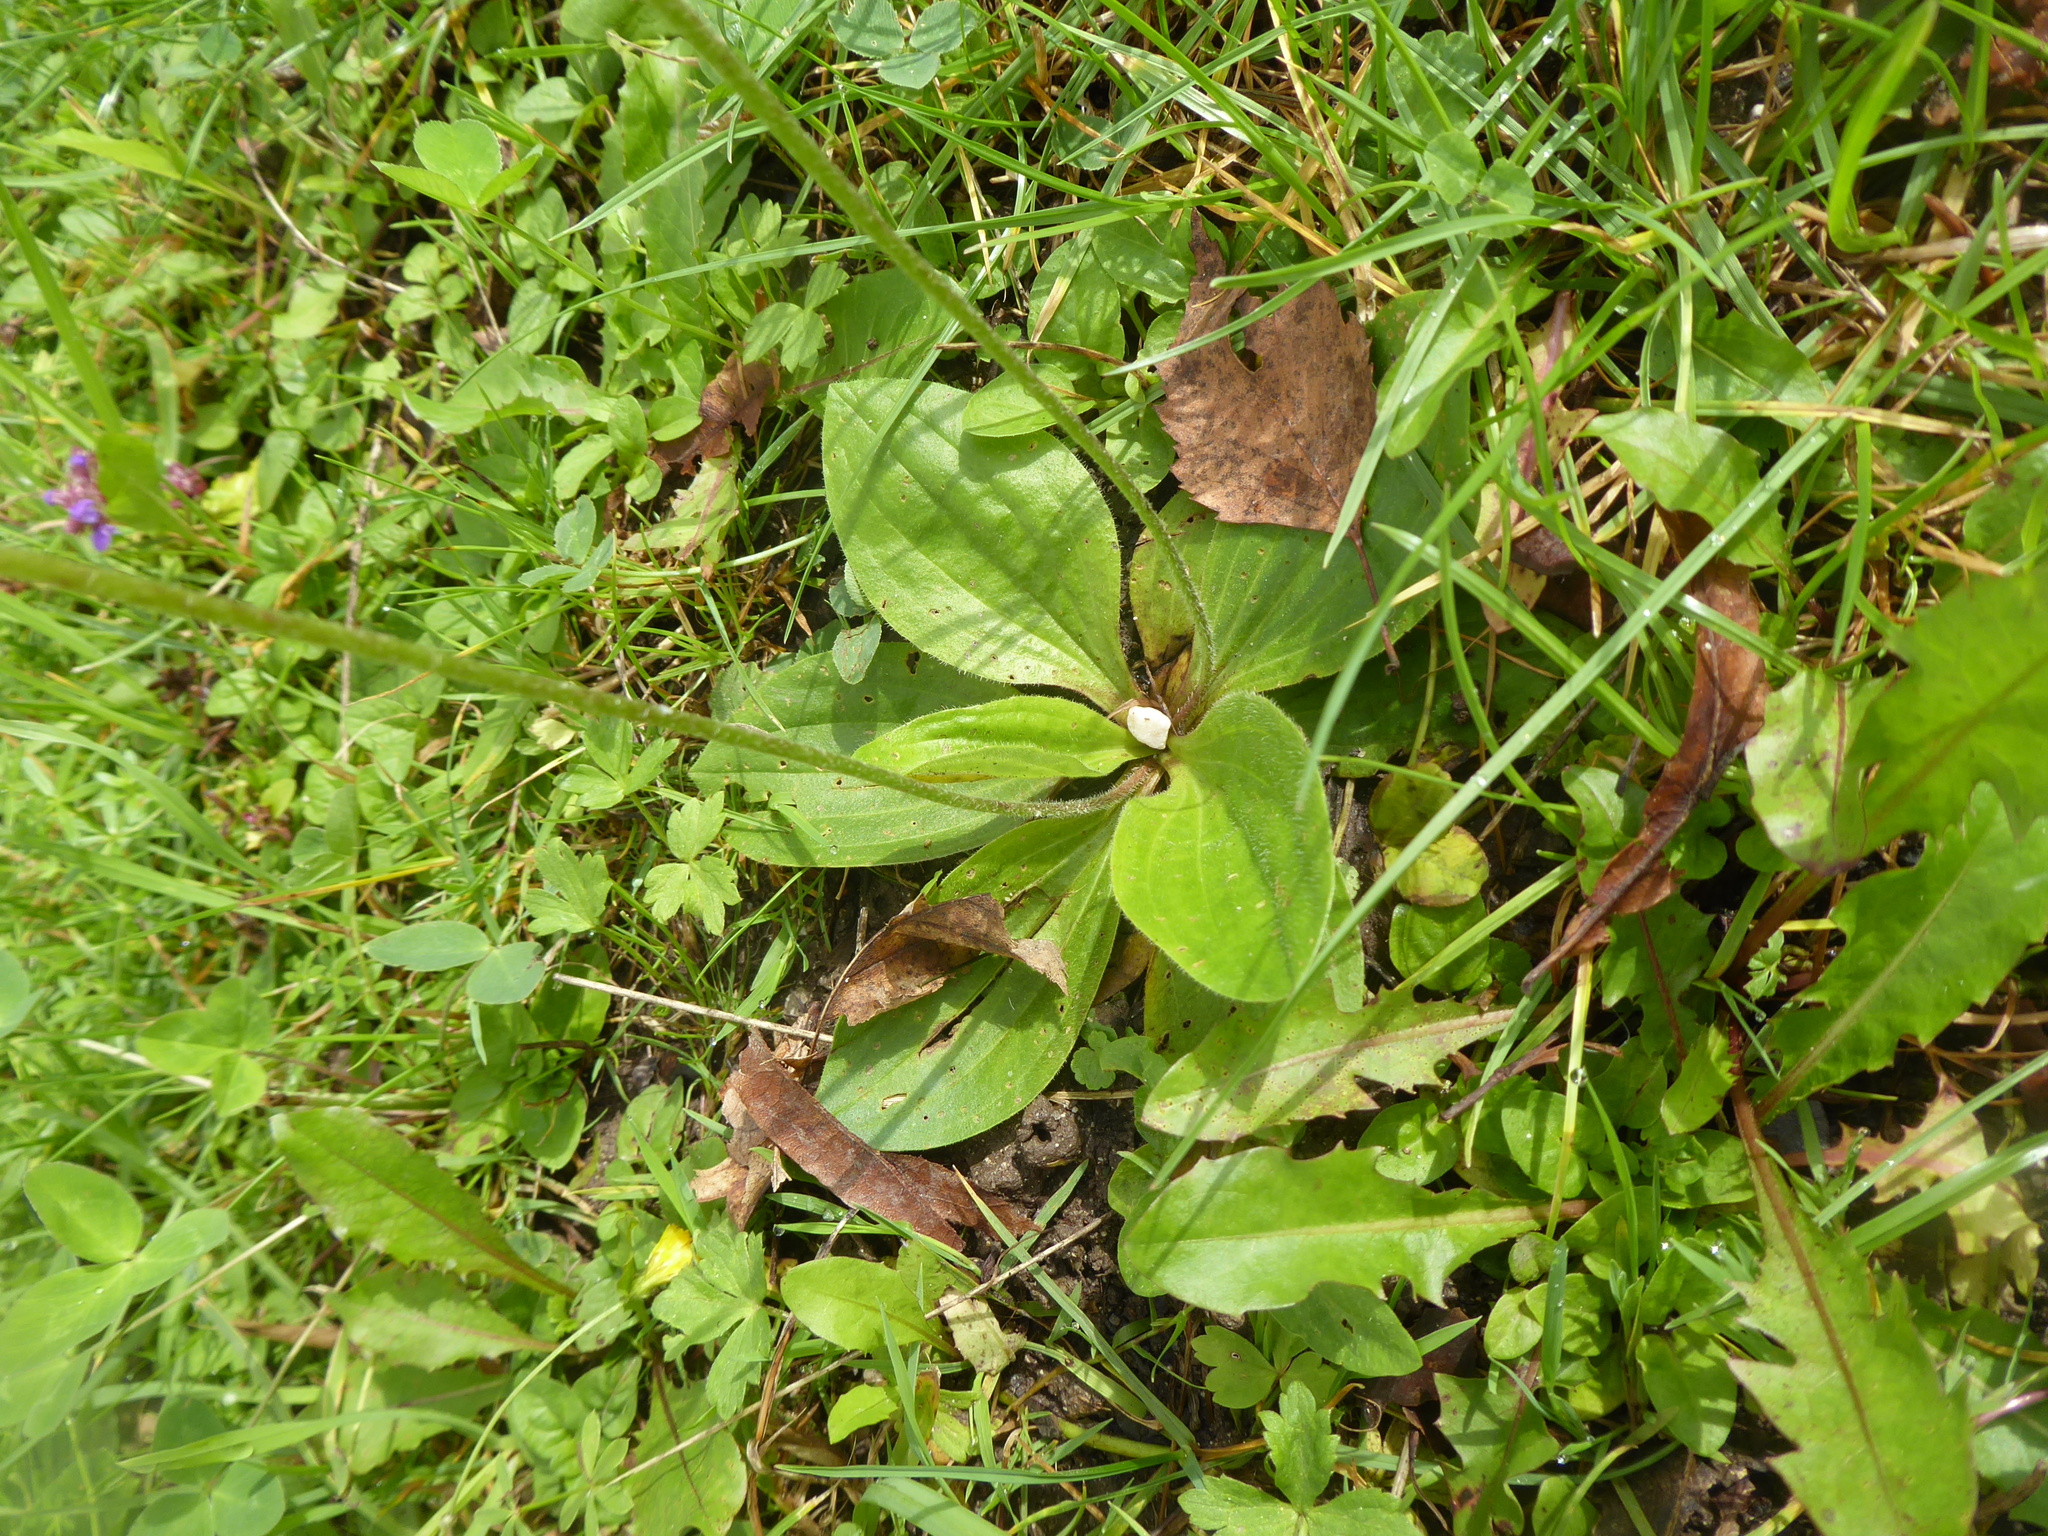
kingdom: Plantae
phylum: Tracheophyta
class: Magnoliopsida
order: Lamiales
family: Plantaginaceae
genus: Plantago
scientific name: Plantago media
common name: Hoary plantain
